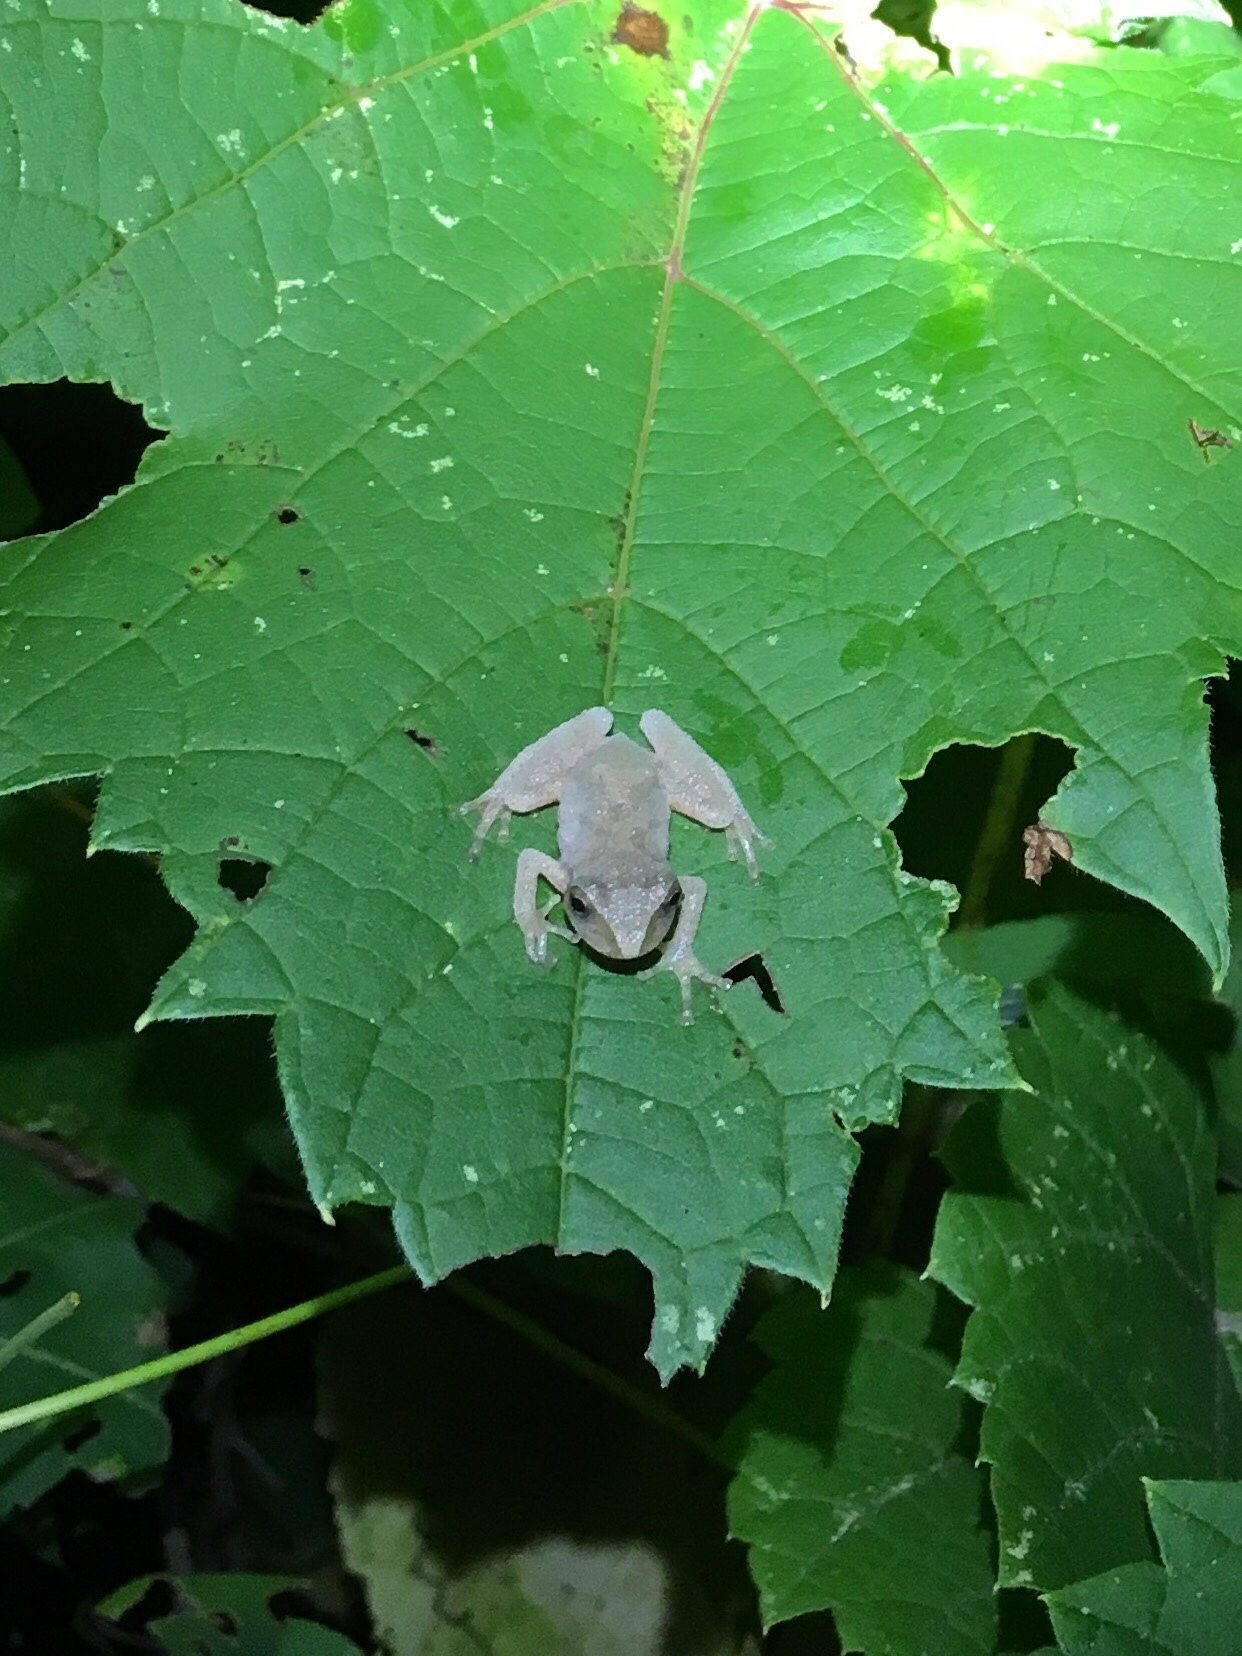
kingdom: Animalia
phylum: Chordata
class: Amphibia
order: Anura
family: Hylidae
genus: Pseudacris
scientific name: Pseudacris crucifer
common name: Spring peeper
